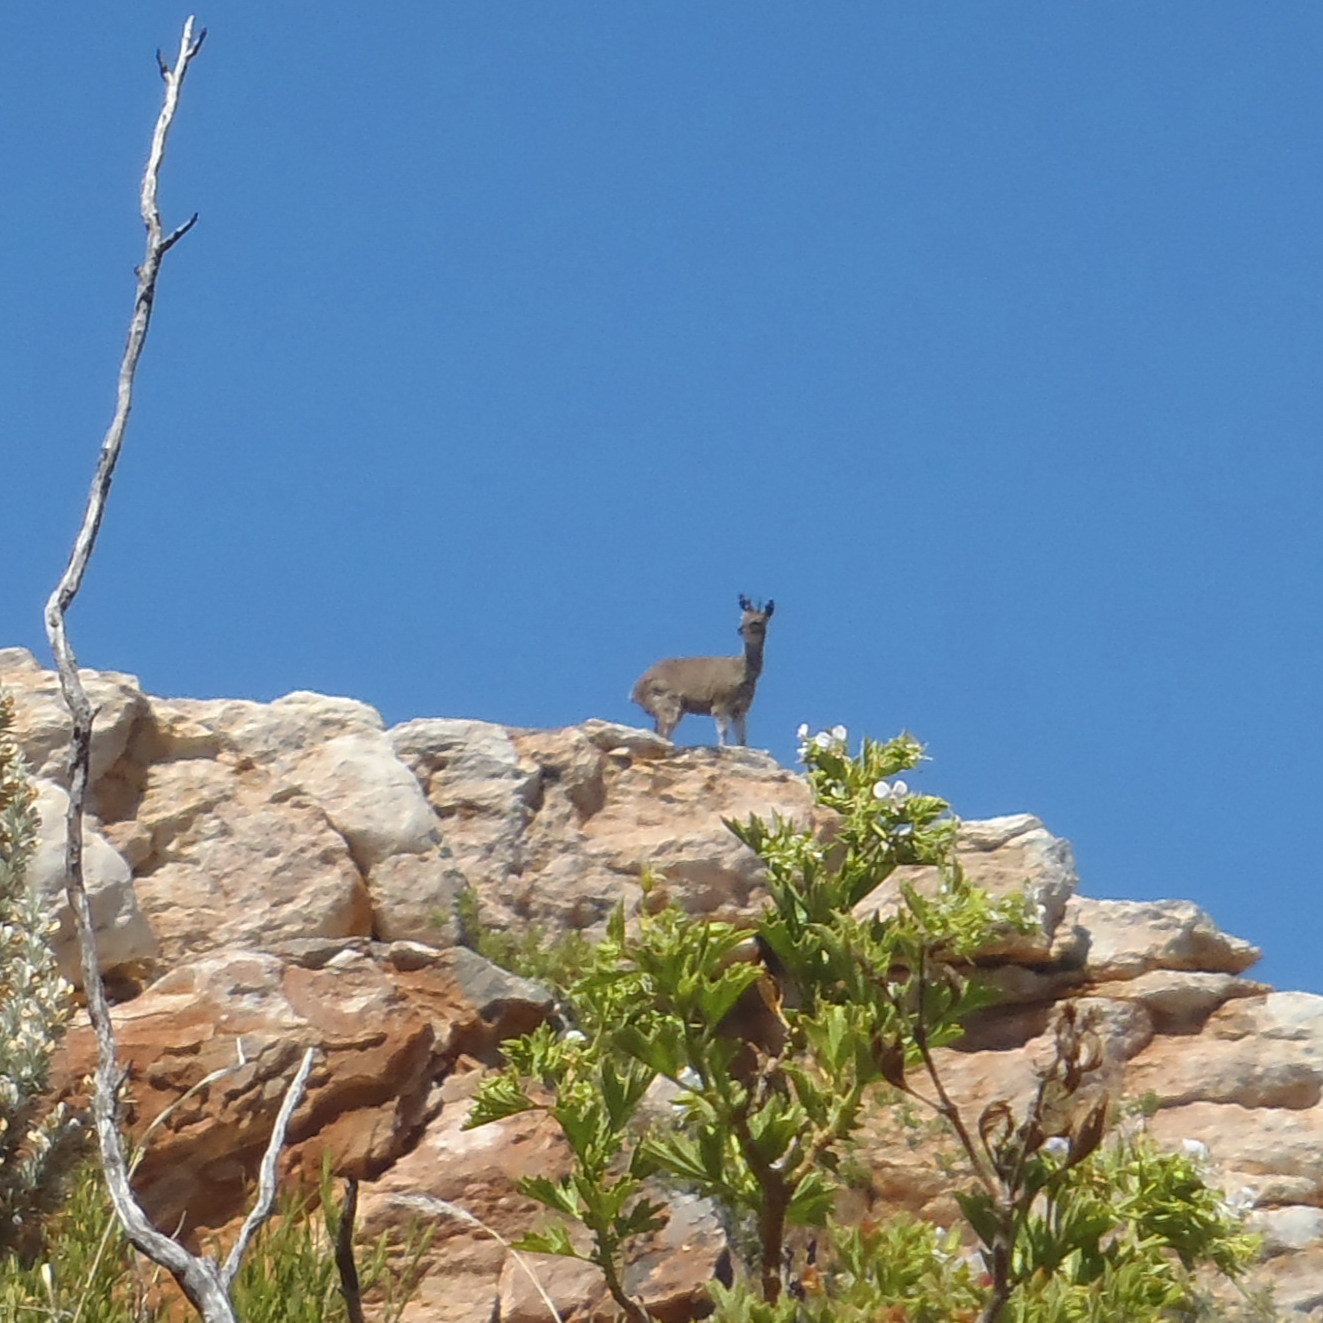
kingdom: Animalia
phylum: Chordata
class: Mammalia
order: Artiodactyla
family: Bovidae
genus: Oreotragus
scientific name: Oreotragus oreotragus
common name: Klipspringer
